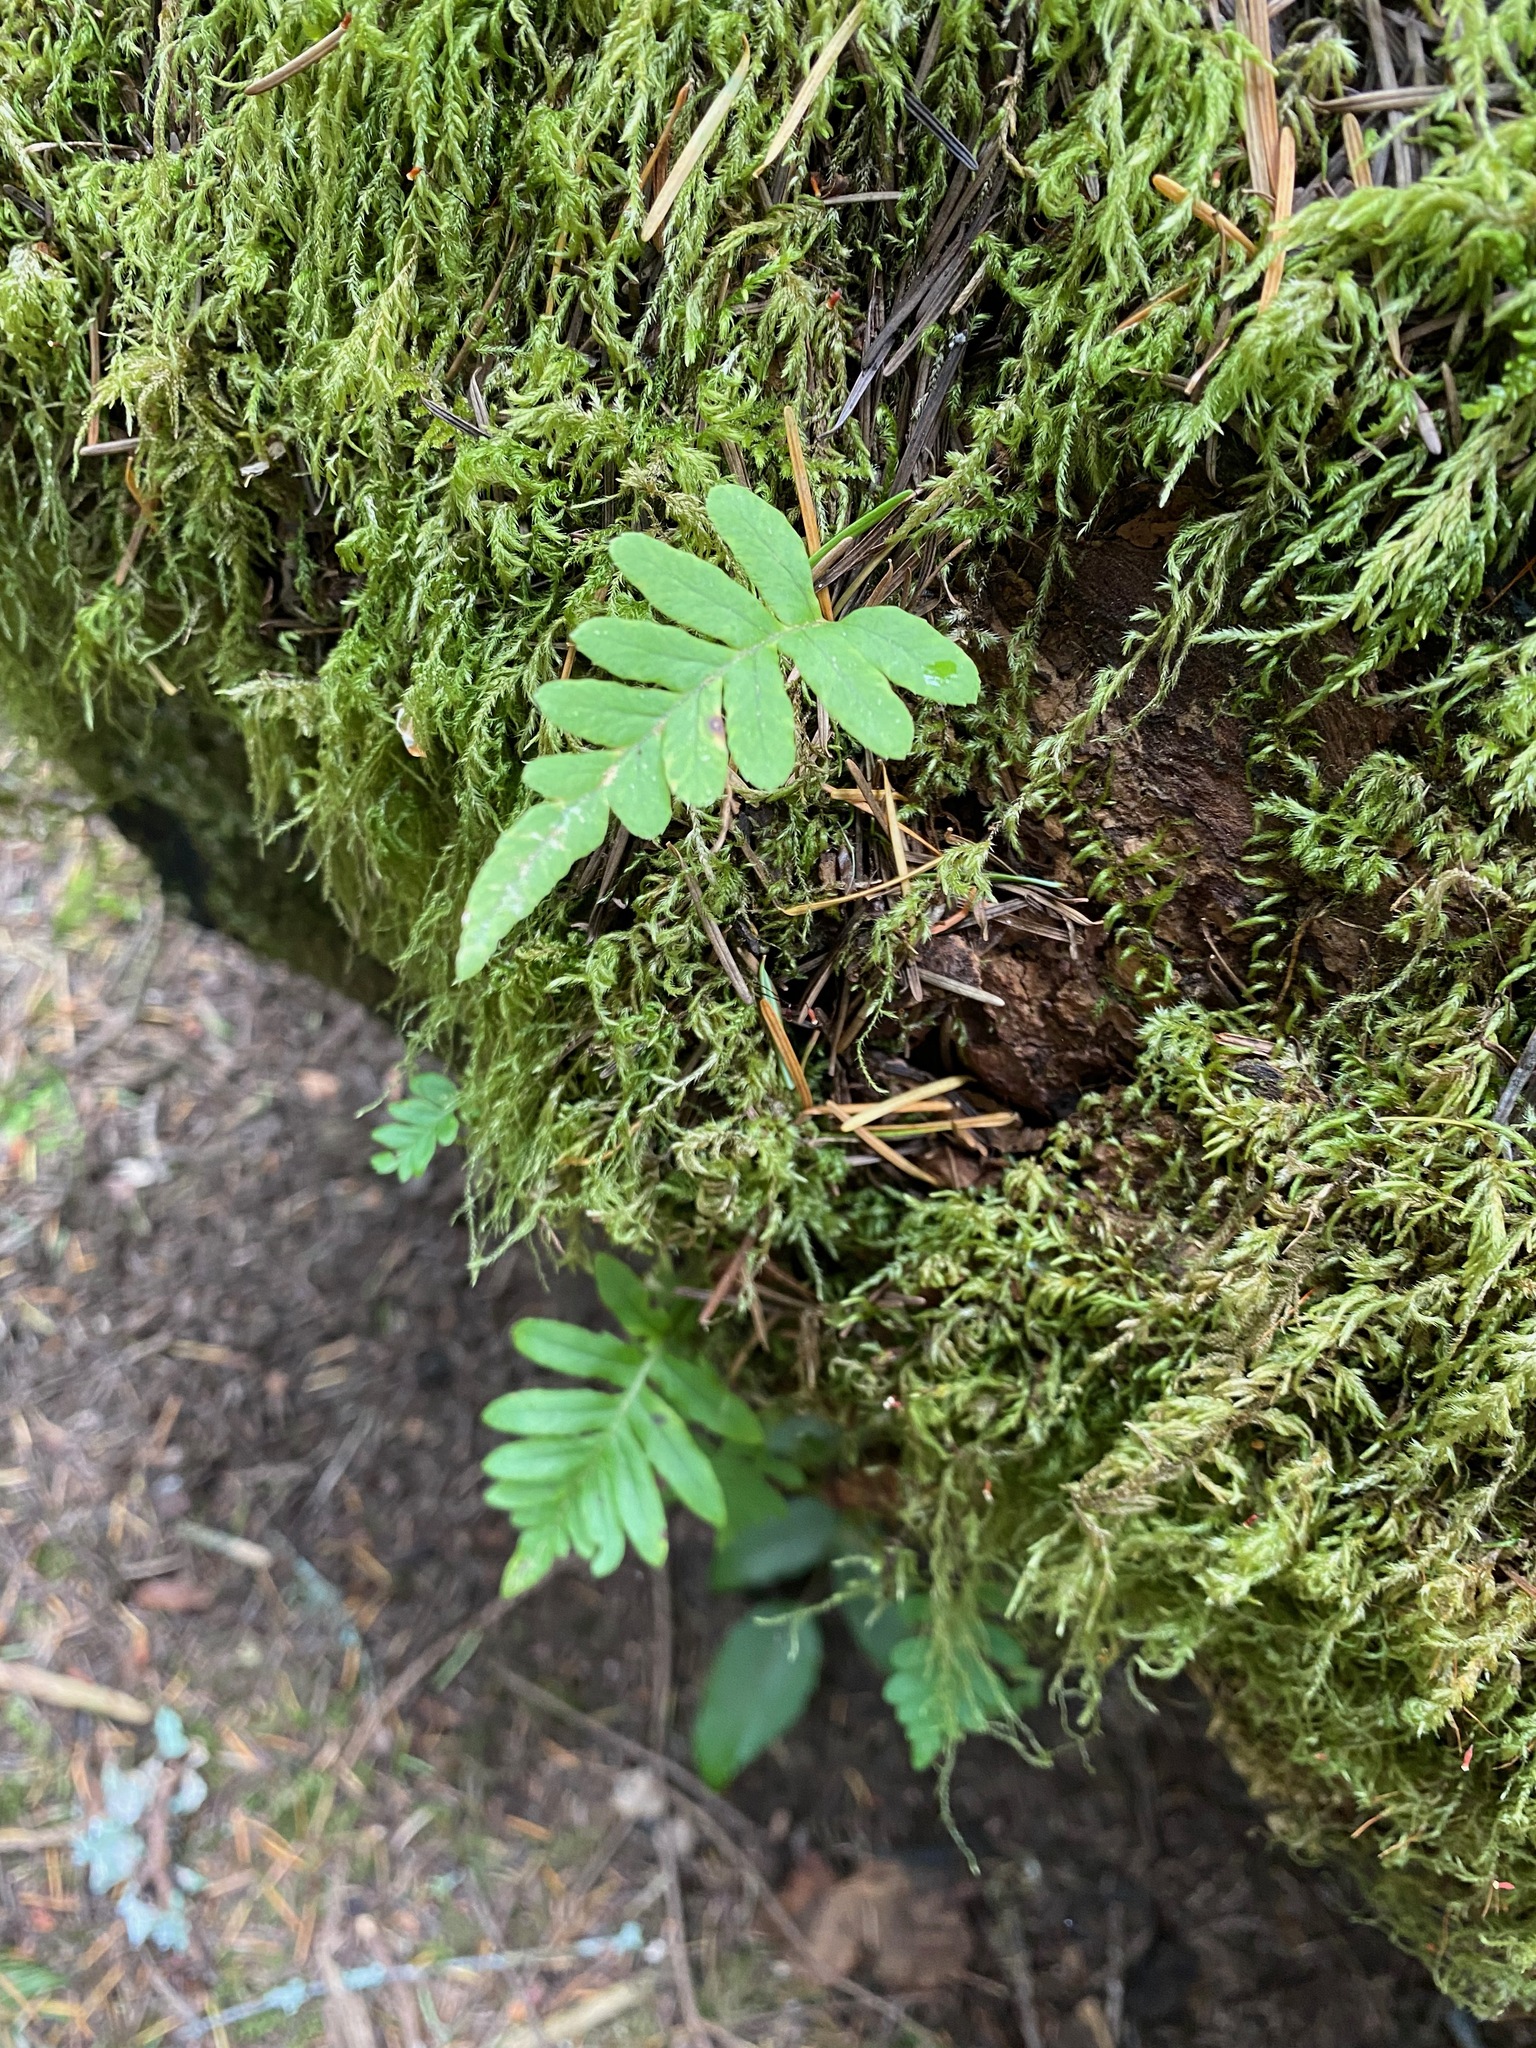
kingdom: Plantae
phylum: Tracheophyta
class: Polypodiopsida
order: Polypodiales
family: Polypodiaceae
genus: Polypodium
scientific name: Polypodium glycyrrhiza
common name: Licorice fern
